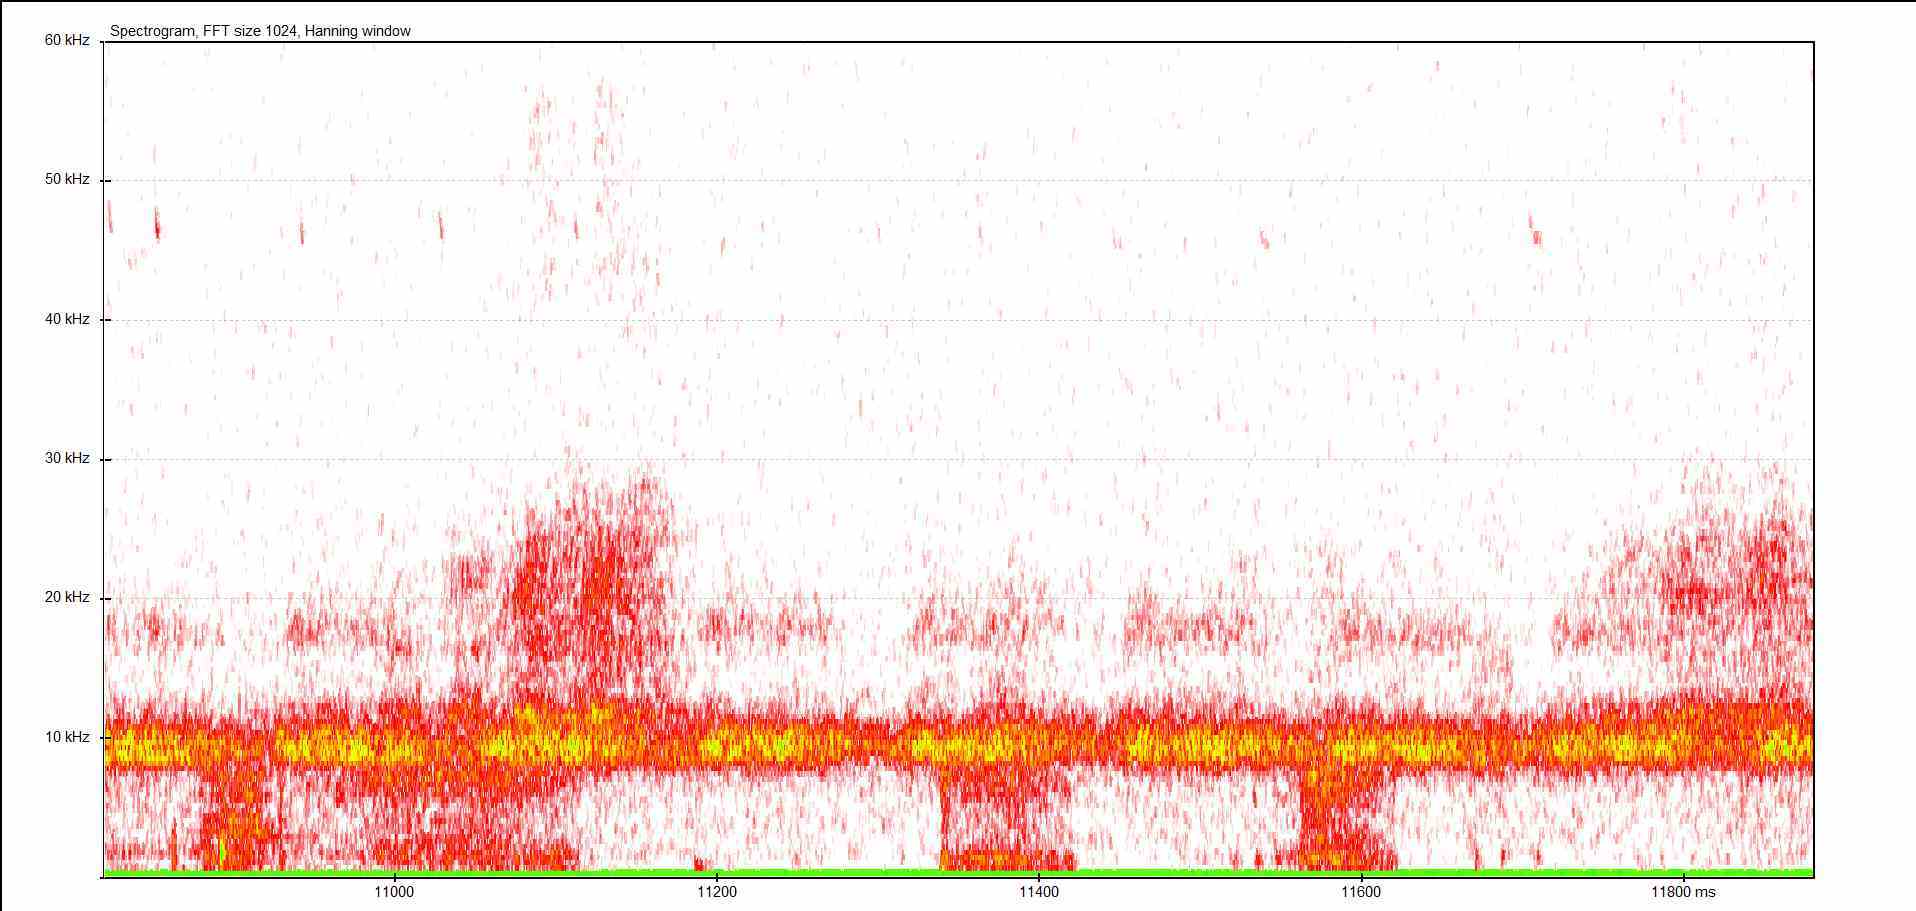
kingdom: Animalia
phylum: Arthropoda
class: Insecta
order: Orthoptera
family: Tettigoniidae
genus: Pholidoptera
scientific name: Pholidoptera griseoaptera
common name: Dark bush-cricket
